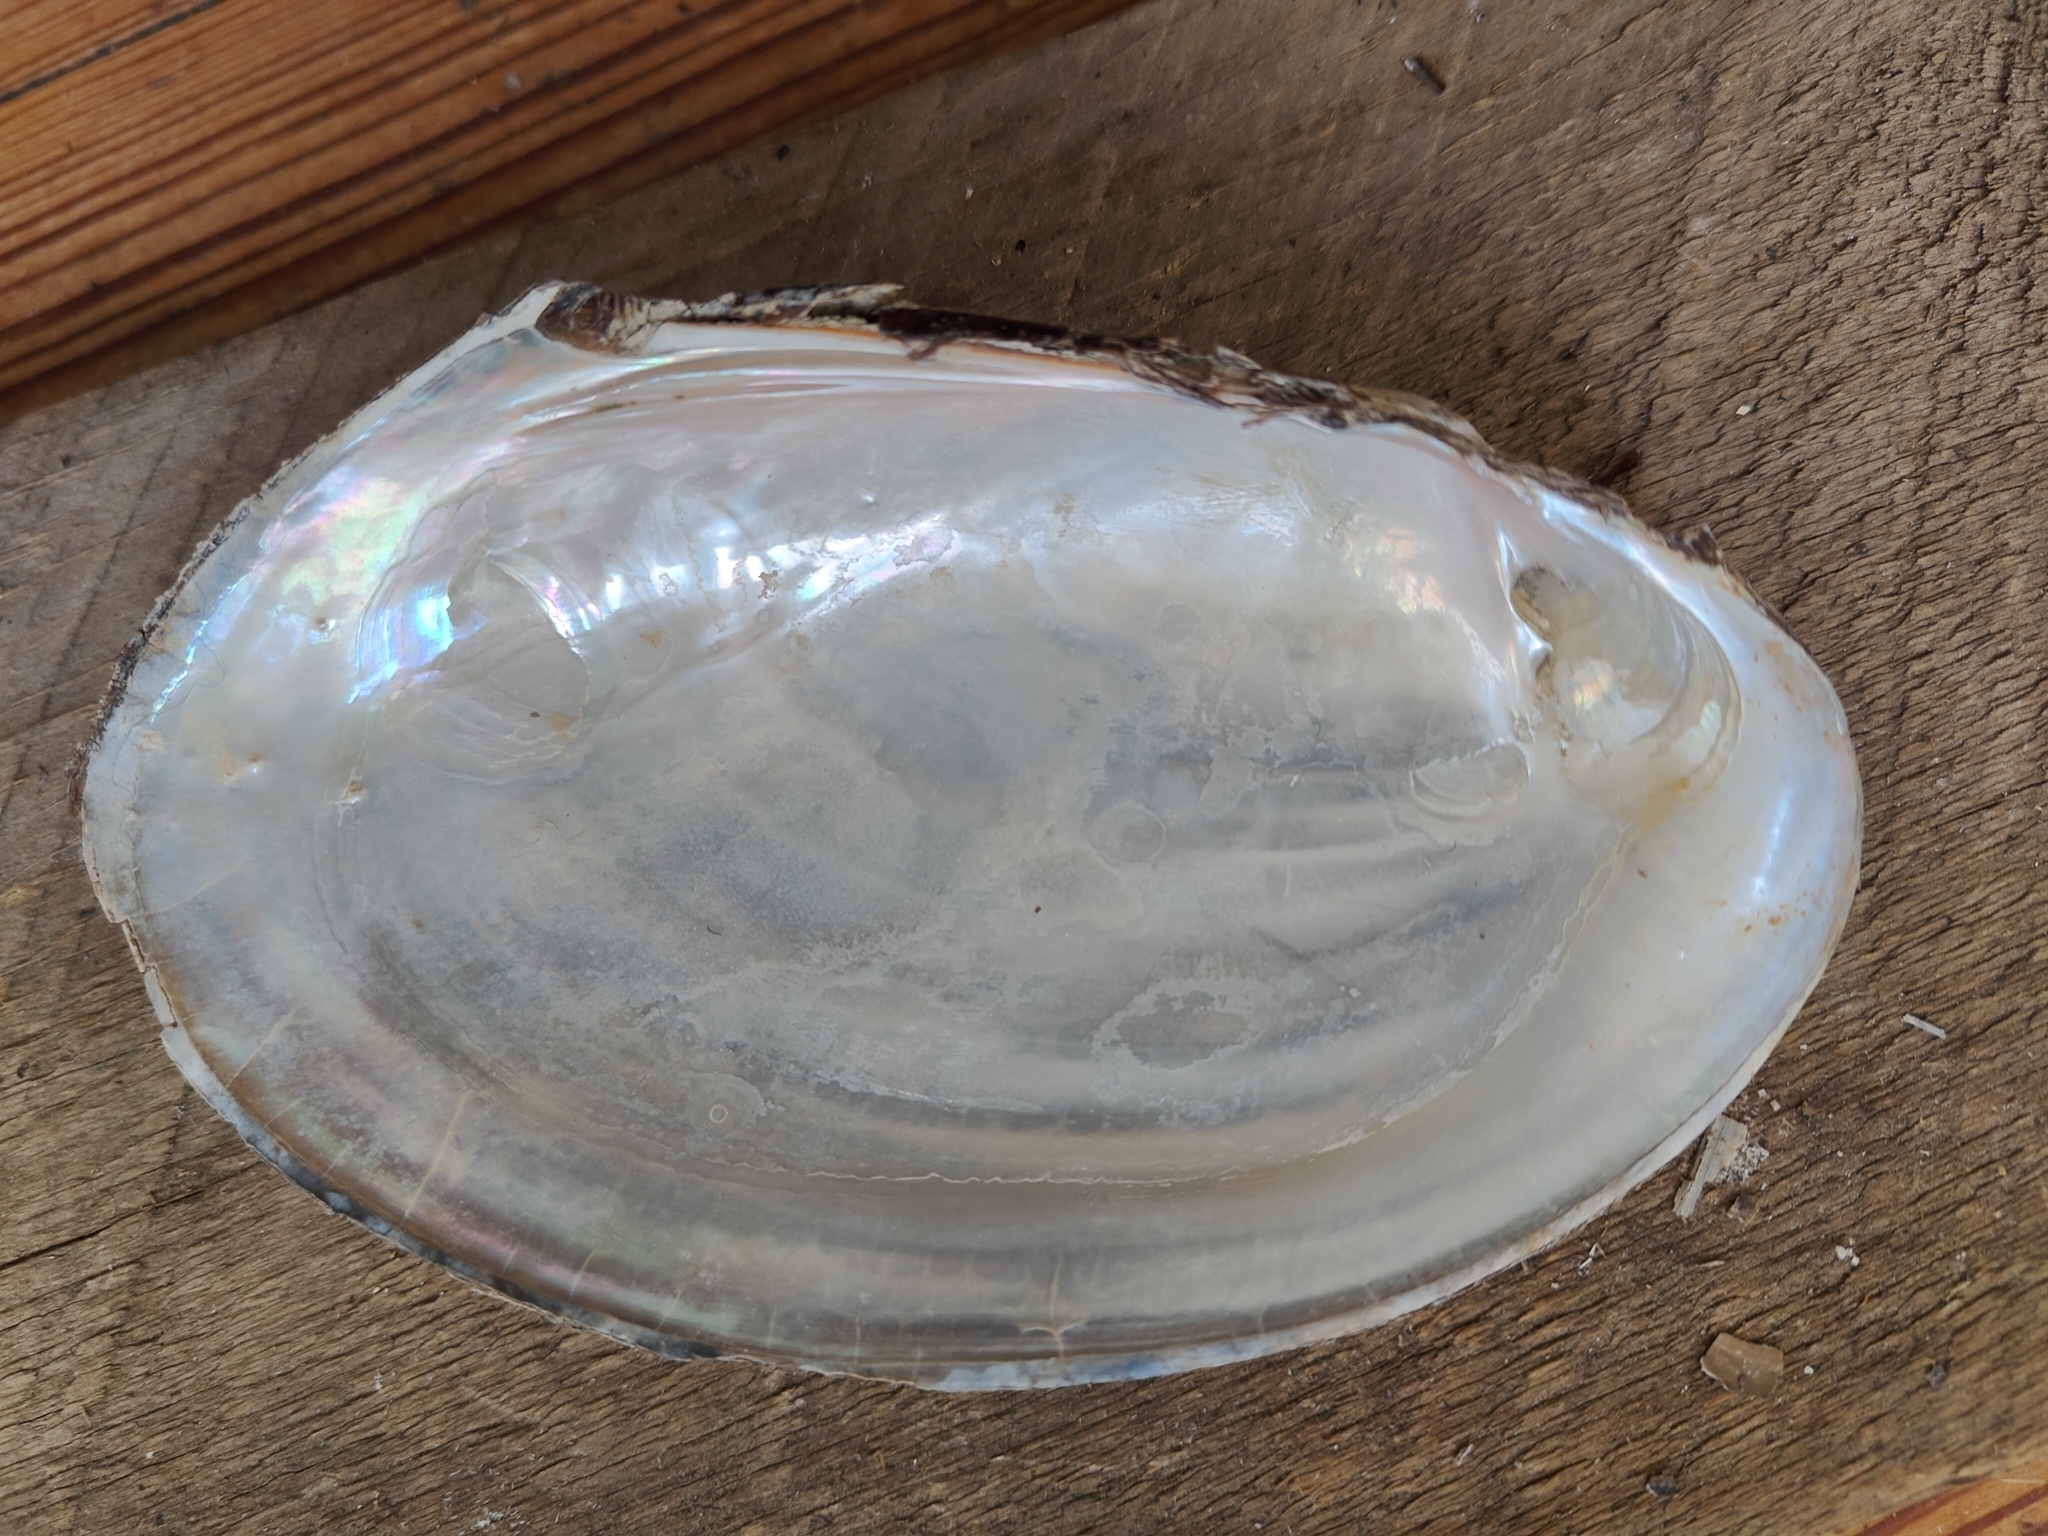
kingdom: Animalia
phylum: Mollusca
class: Bivalvia
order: Unionida
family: Unionidae
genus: Potamilus
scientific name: Potamilus fragilis
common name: Fragile papershell
